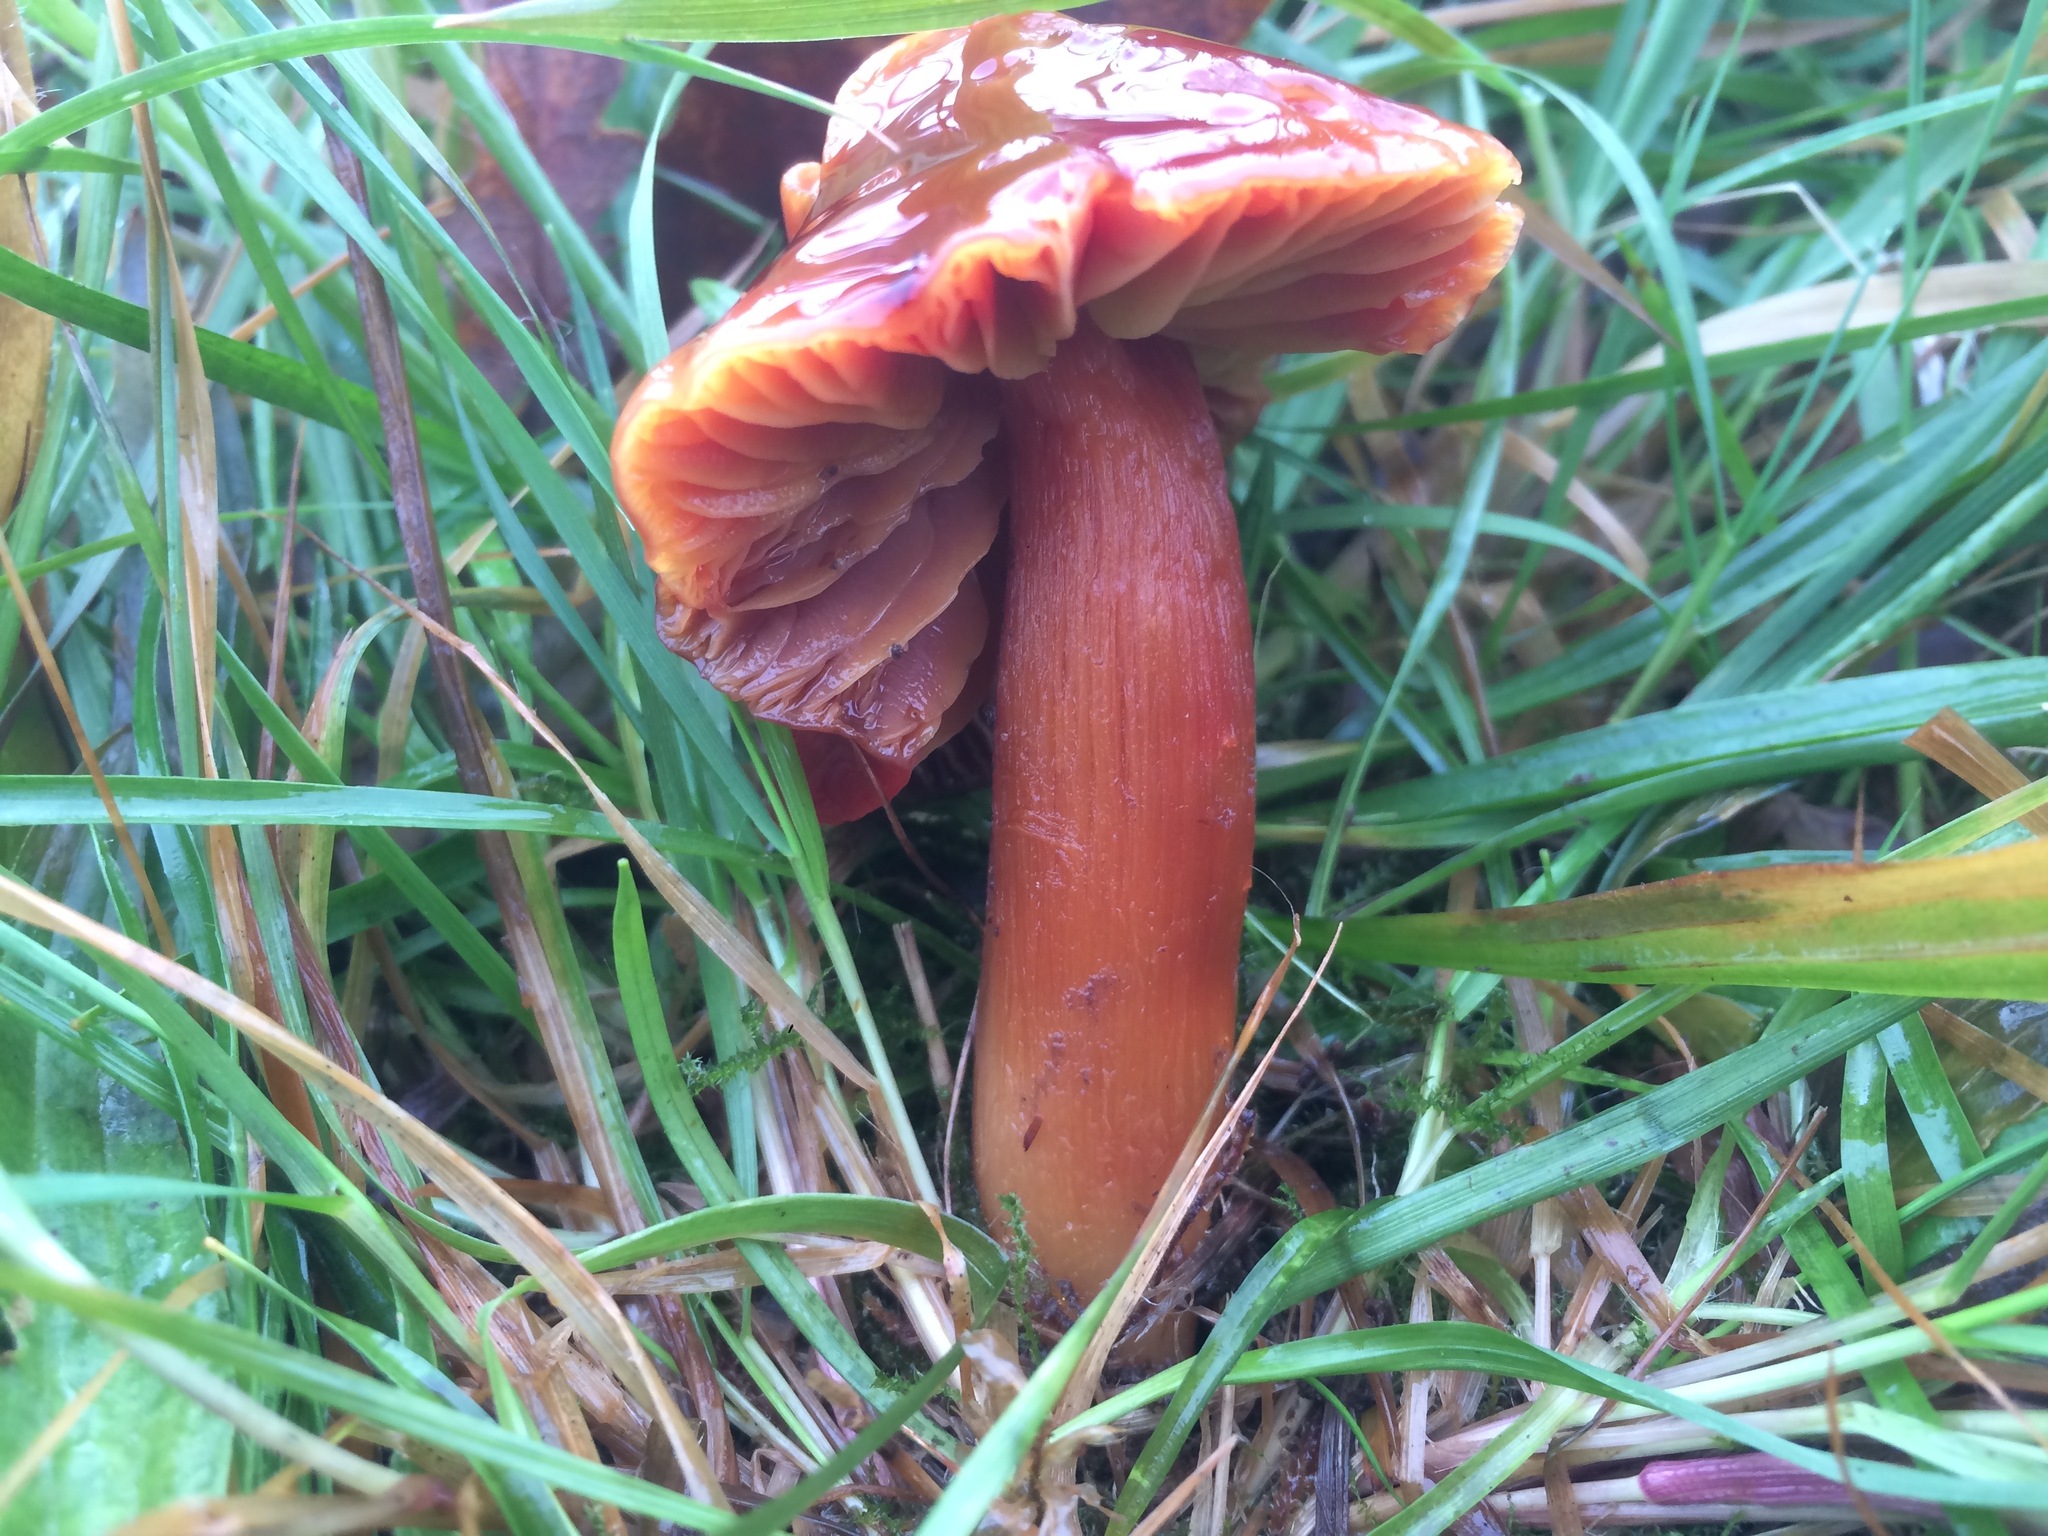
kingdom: Fungi
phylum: Basidiomycota
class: Agaricomycetes
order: Agaricales
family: Hygrophoraceae
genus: Hygrocybe
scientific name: Hygrocybe punicea
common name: Crimson waxcap
